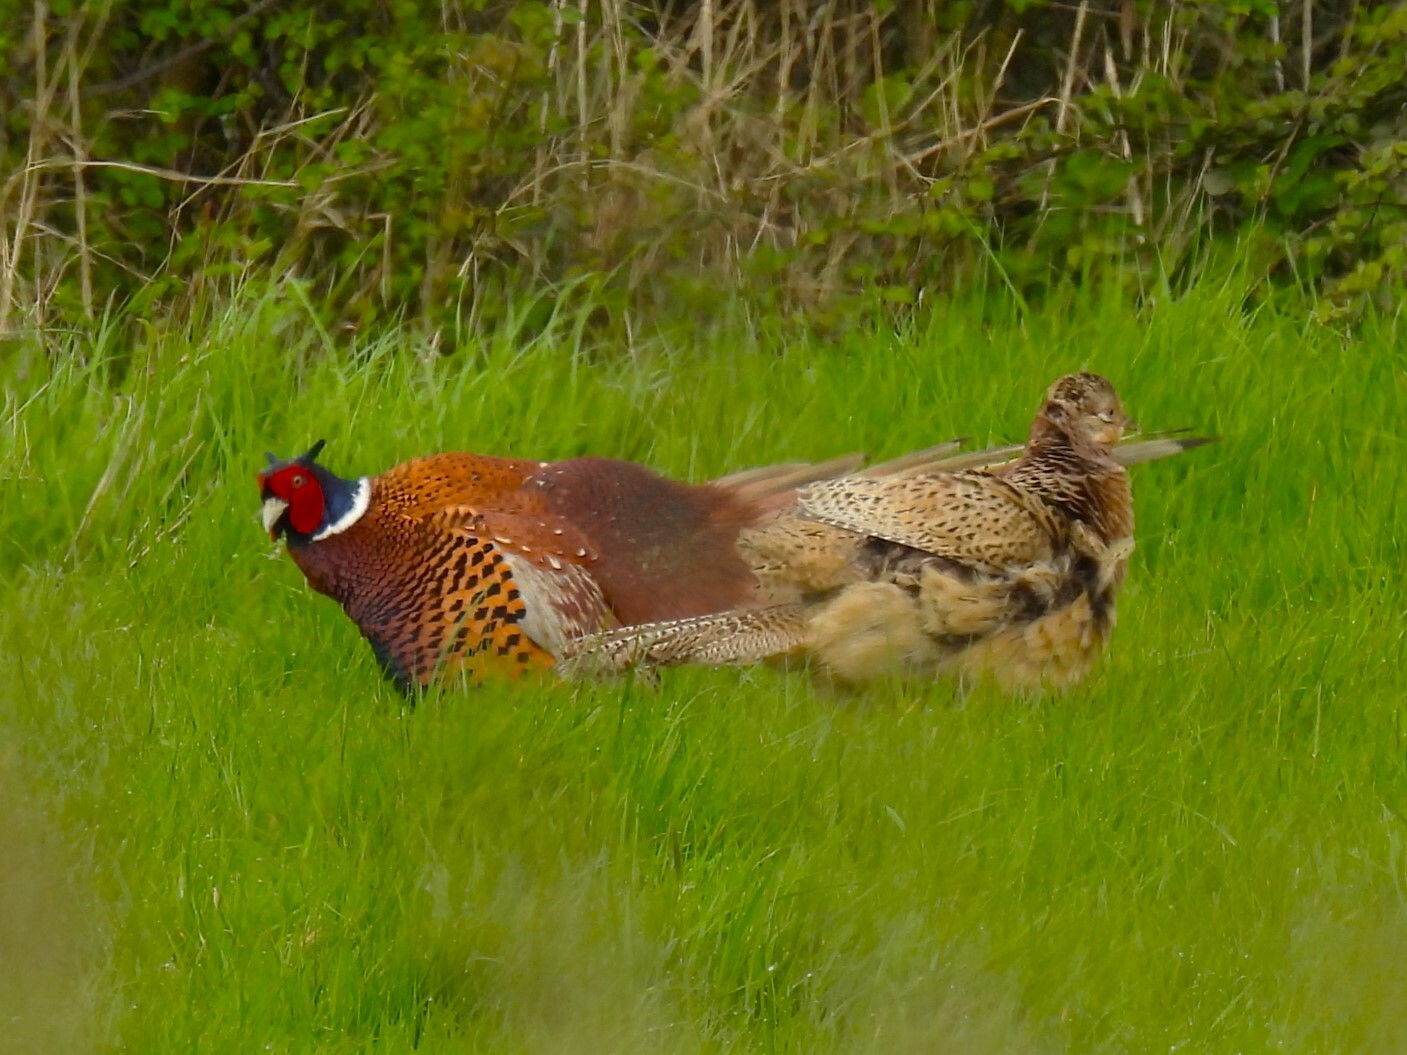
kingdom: Animalia
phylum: Chordata
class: Aves
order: Galliformes
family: Phasianidae
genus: Phasianus
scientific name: Phasianus colchicus
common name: Common pheasant
